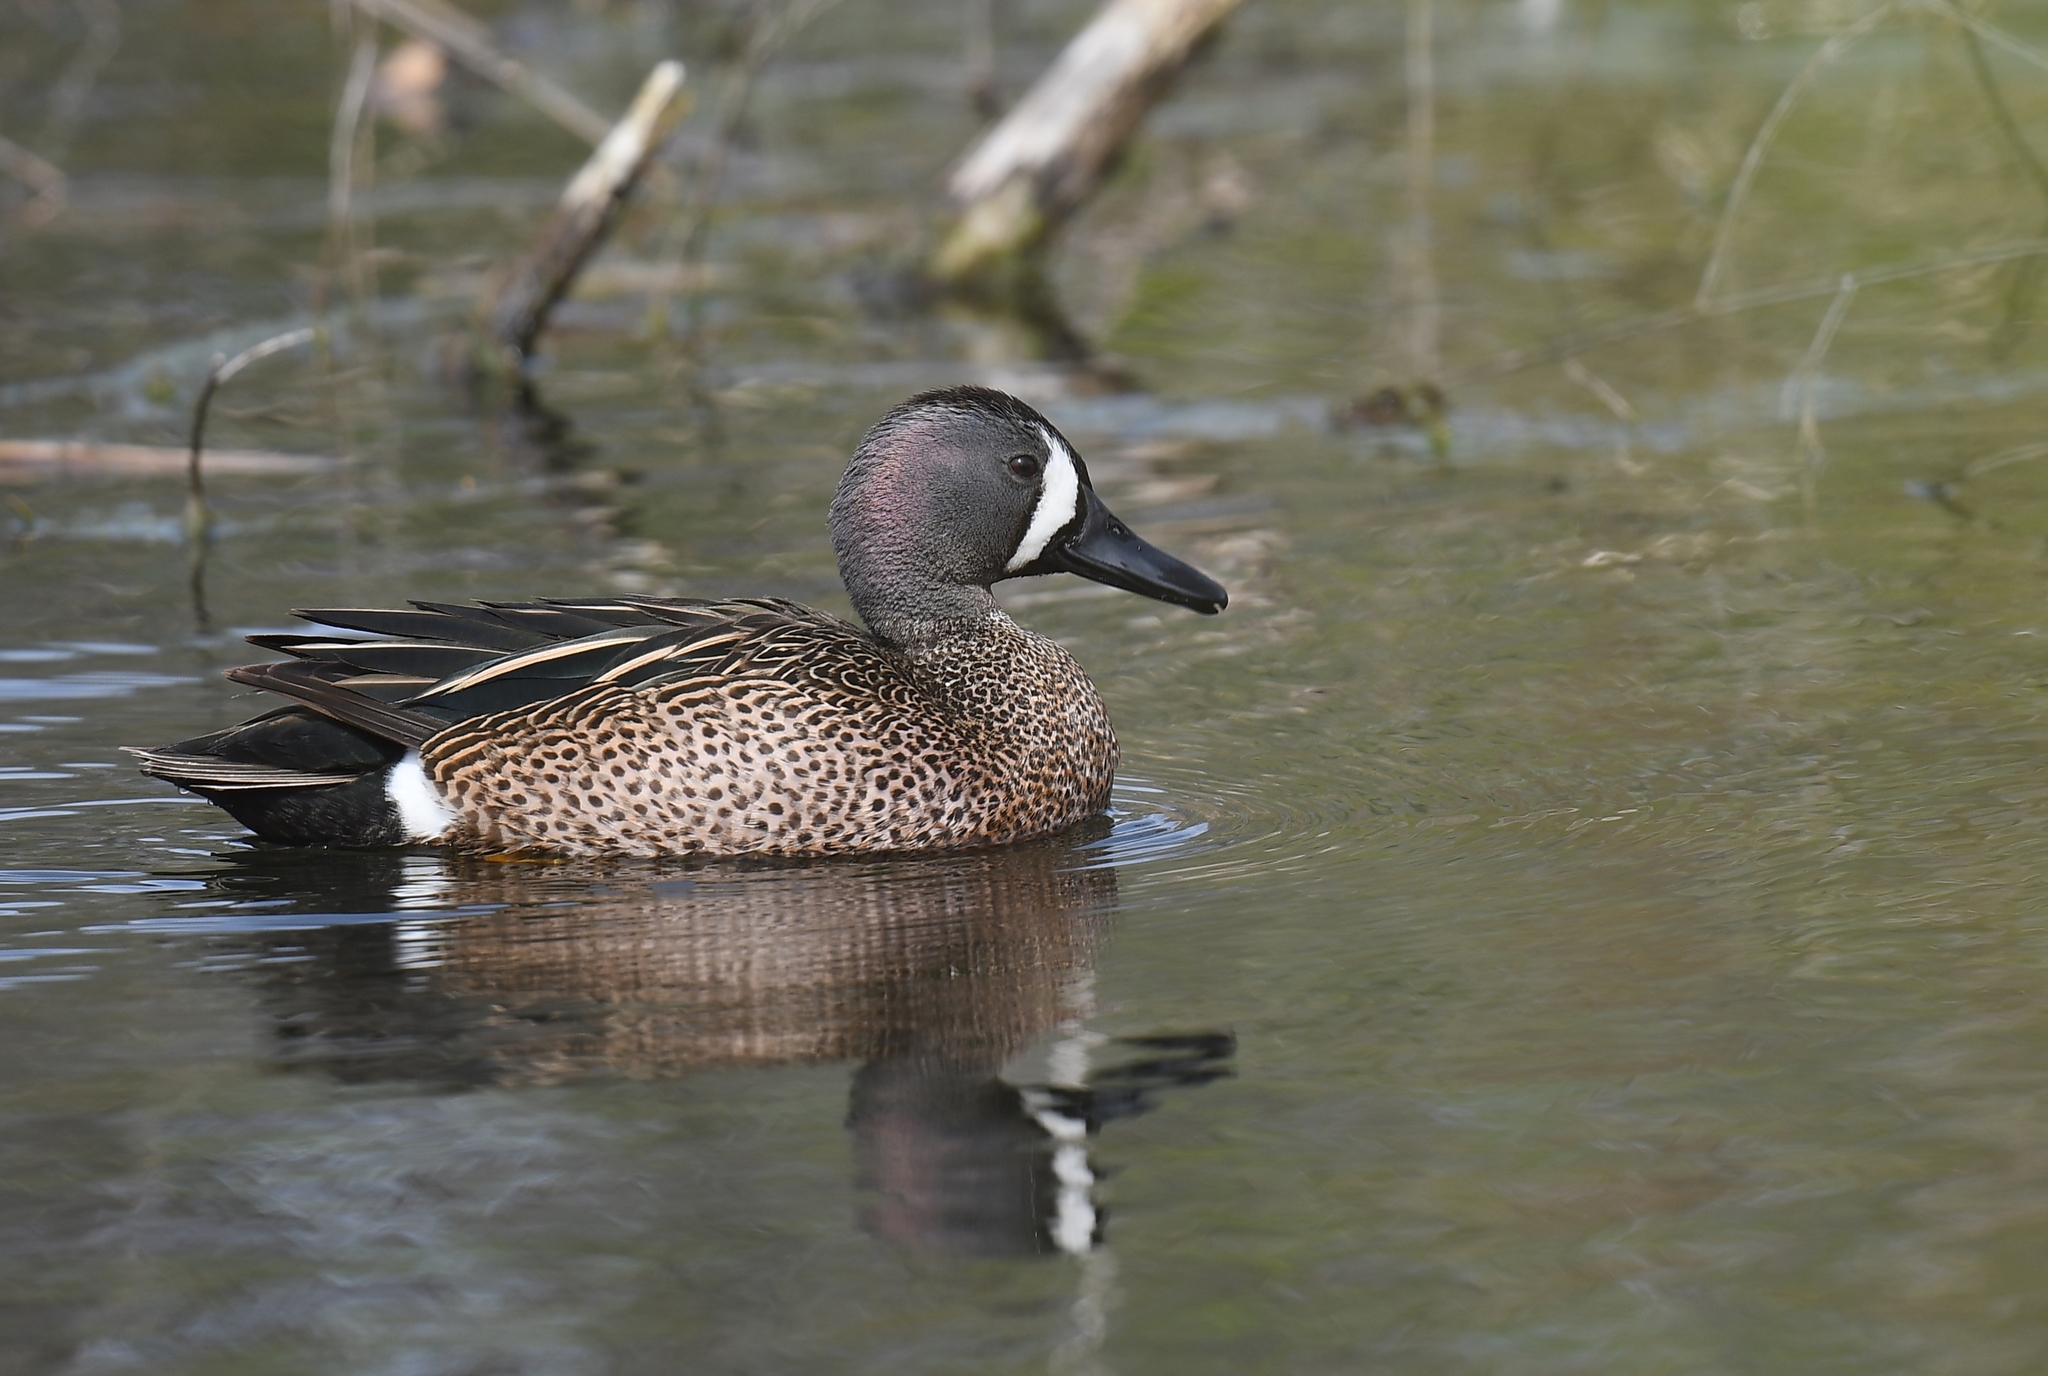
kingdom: Animalia
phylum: Chordata
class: Aves
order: Anseriformes
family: Anatidae
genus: Spatula
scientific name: Spatula discors
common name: Blue-winged teal
